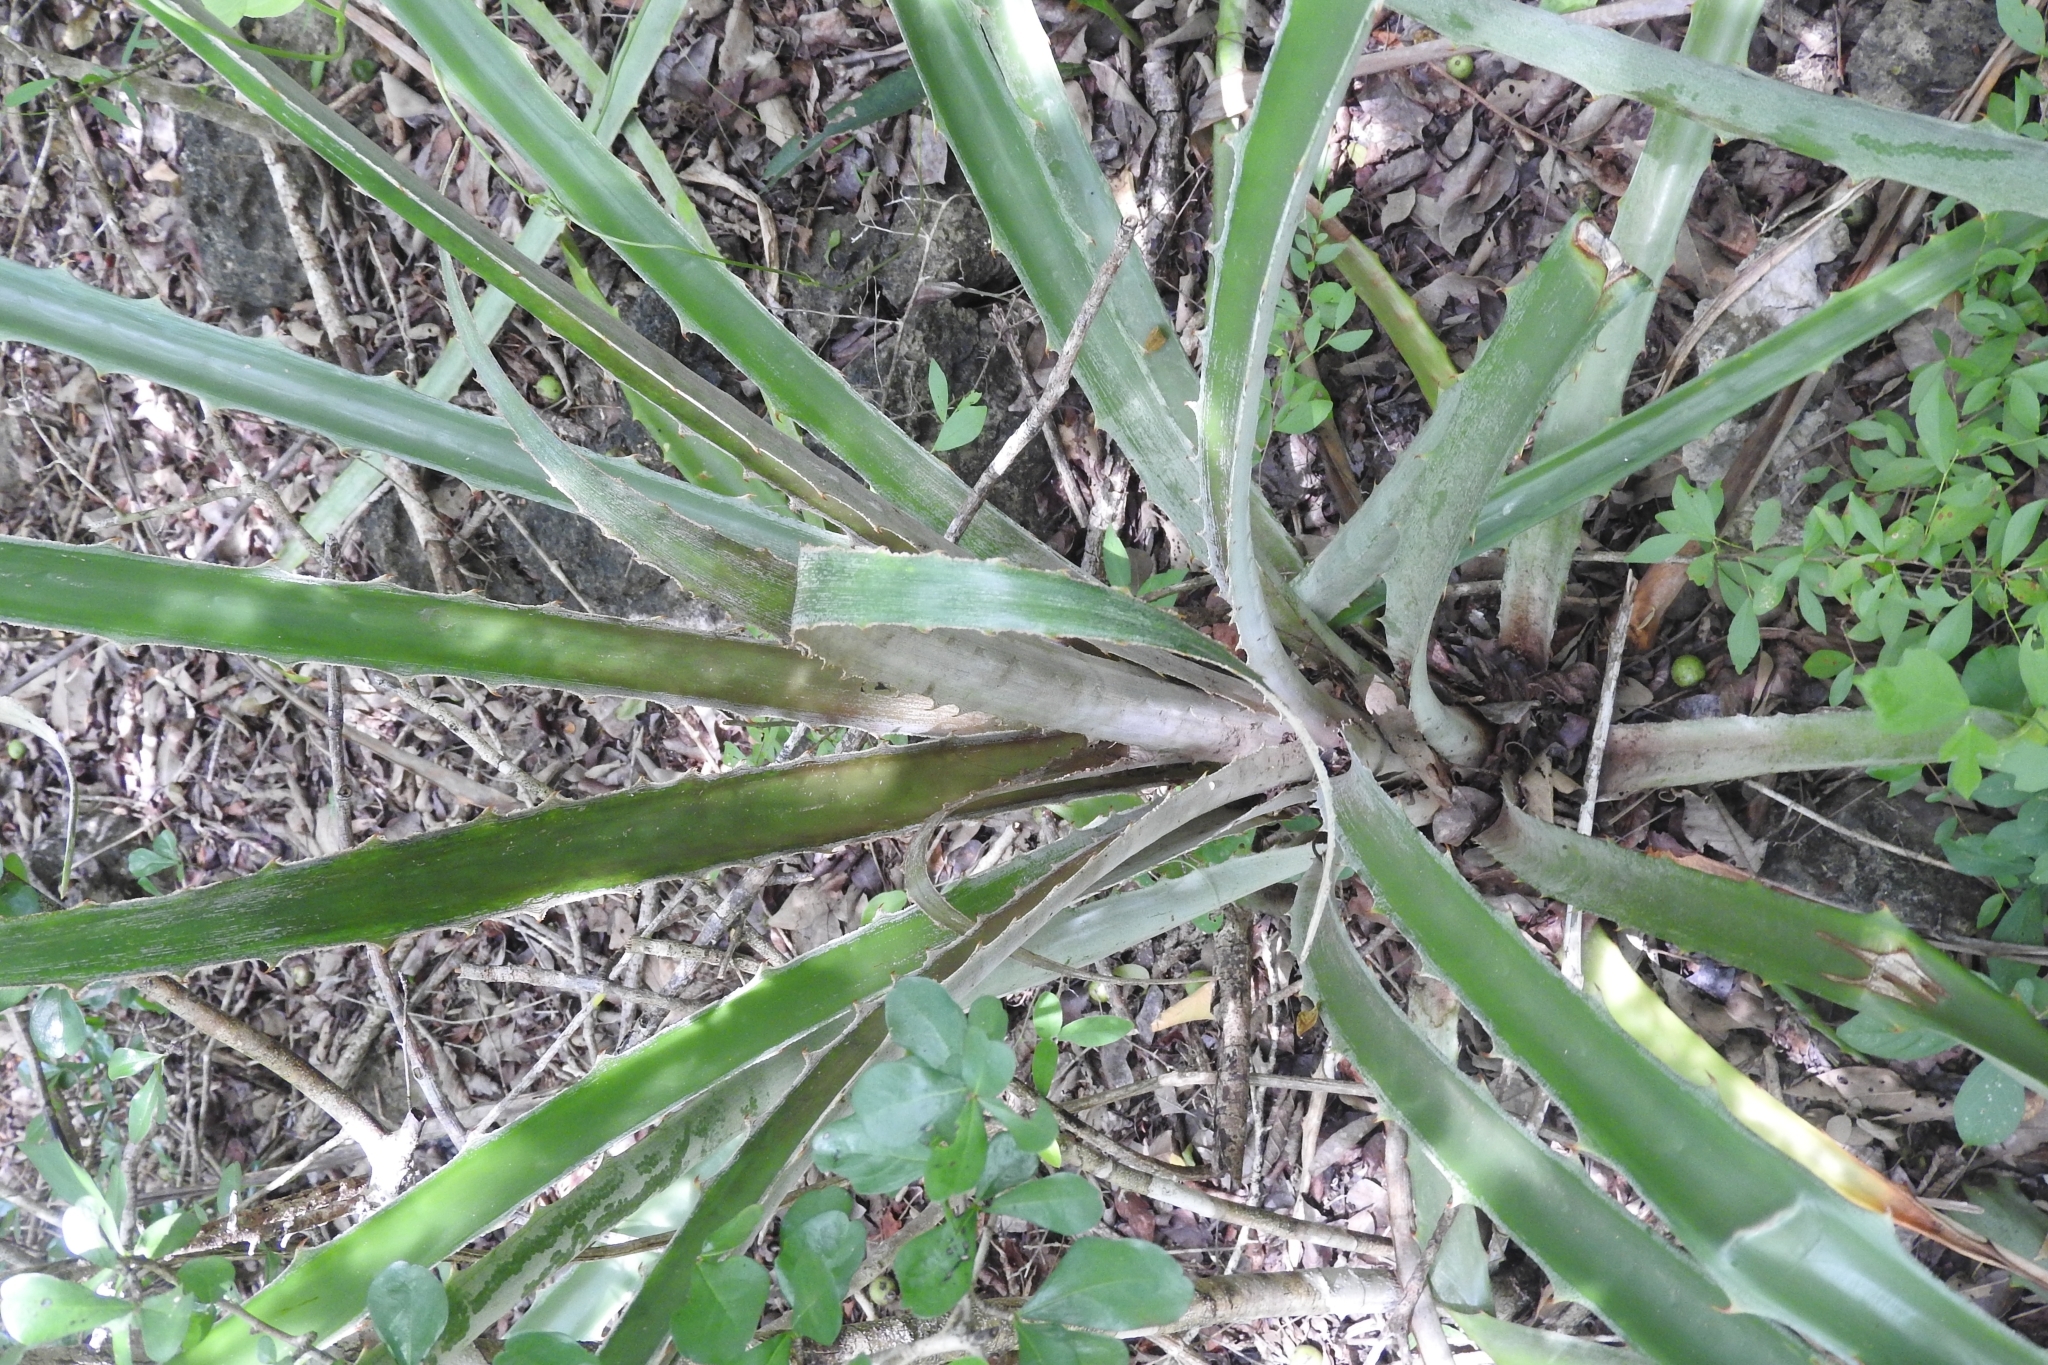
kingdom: Plantae
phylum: Tracheophyta
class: Liliopsida
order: Poales
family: Bromeliaceae
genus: Bromelia
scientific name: Bromelia pinguin
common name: Pinguin
